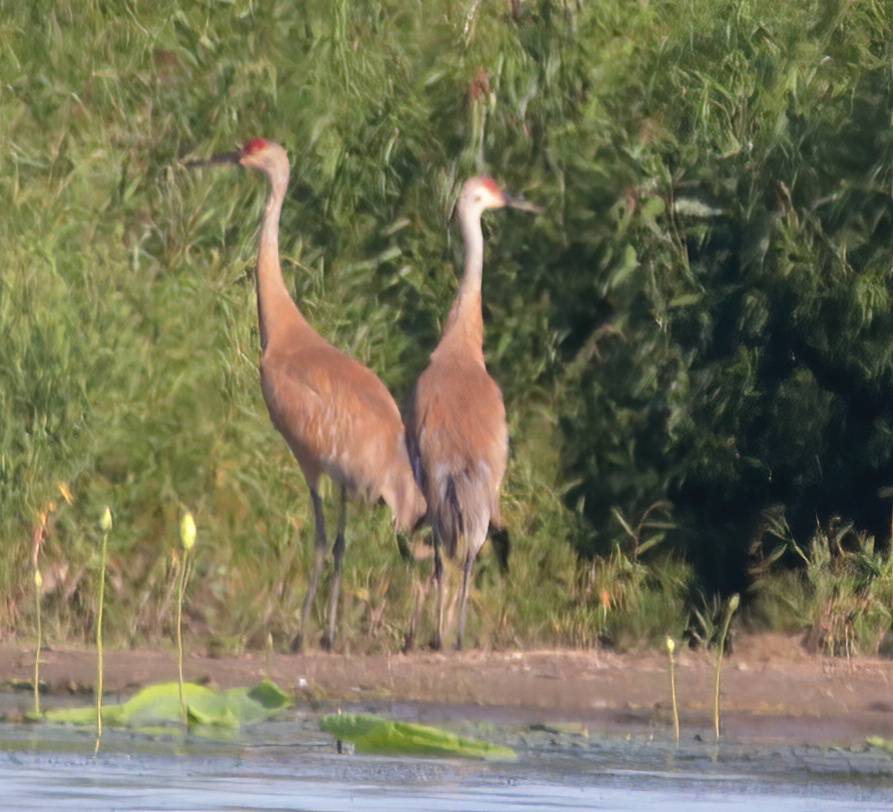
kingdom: Animalia
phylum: Chordata
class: Aves
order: Gruiformes
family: Gruidae
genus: Grus
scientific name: Grus canadensis
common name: Sandhill crane
